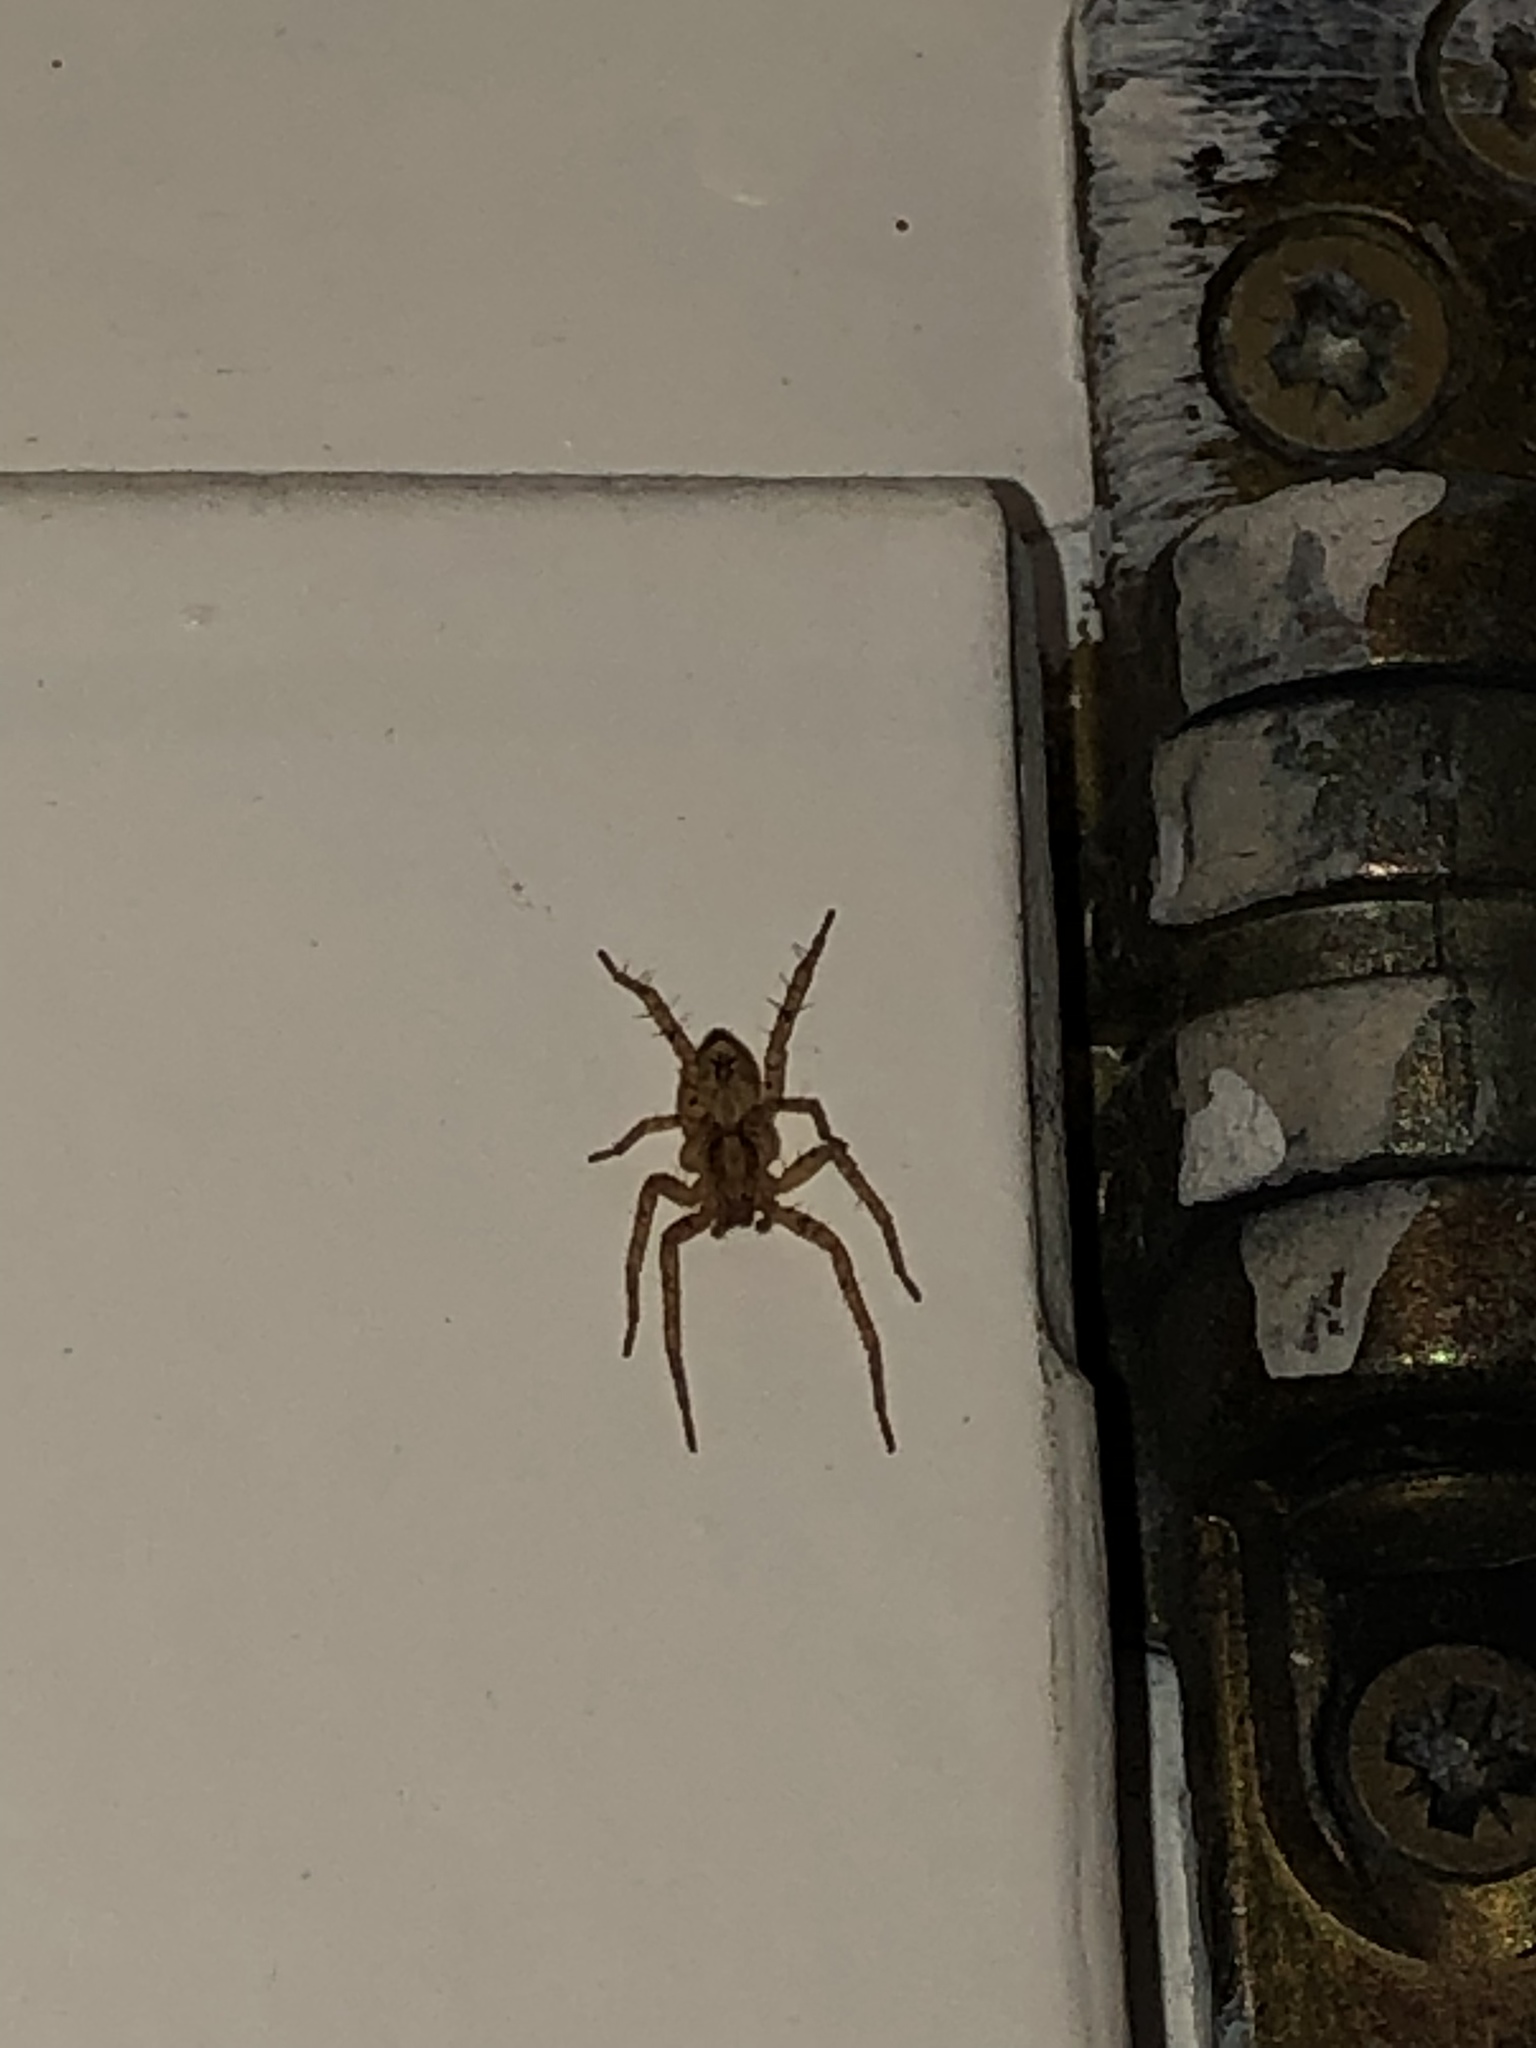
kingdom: Animalia
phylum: Arthropoda
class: Arachnida
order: Araneae
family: Anyphaenidae
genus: Anyphaena
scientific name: Anyphaena accentuata
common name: Buzzing spider
